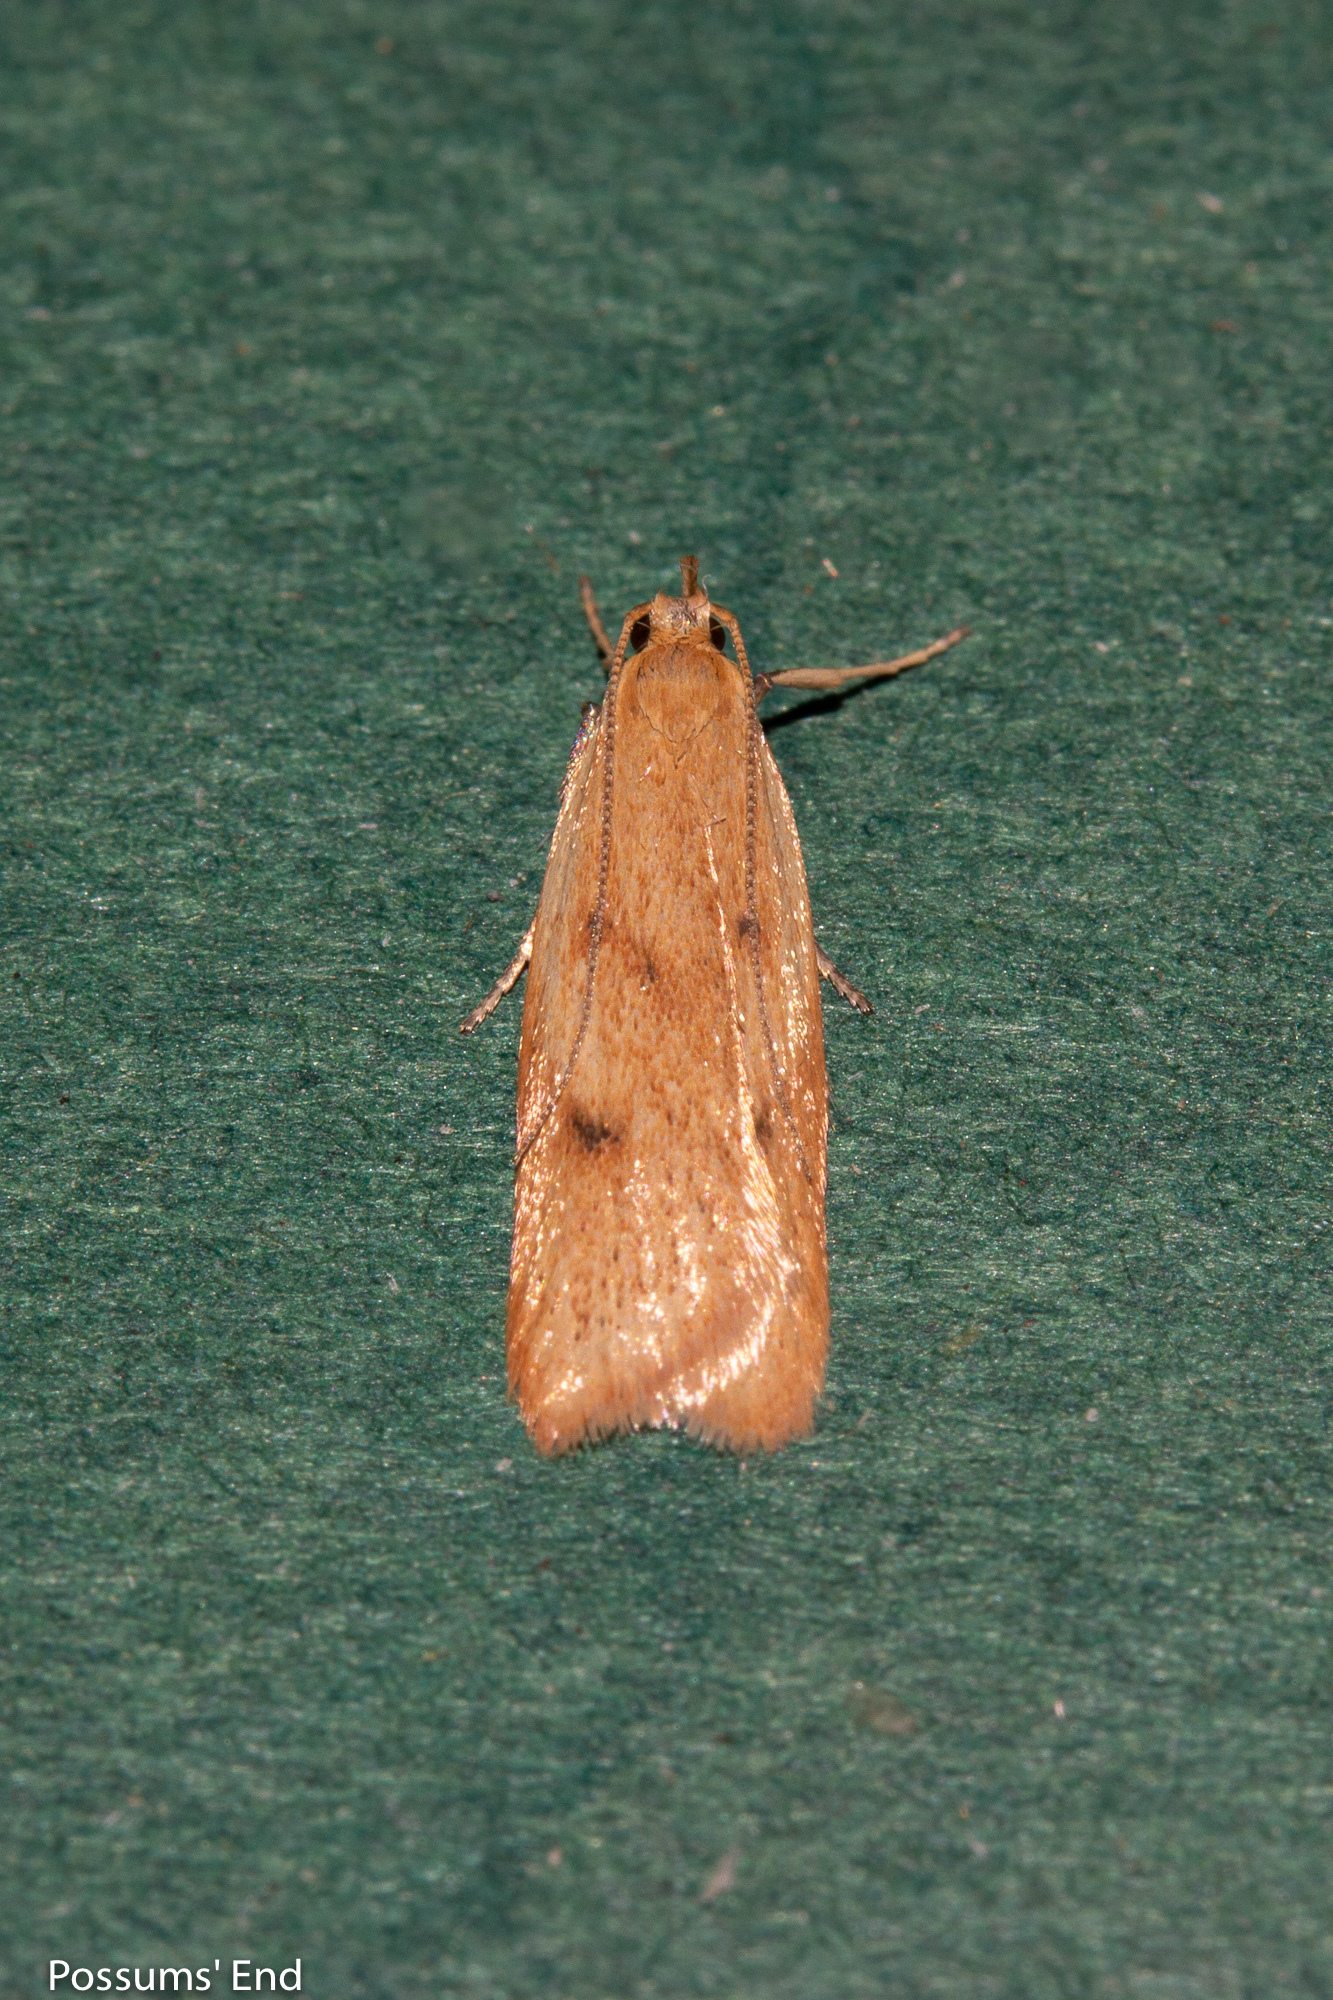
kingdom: Animalia
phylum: Arthropoda
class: Insecta
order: Lepidoptera
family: Oecophoridae
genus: Gymnobathra
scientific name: Gymnobathra sarcoxantha
